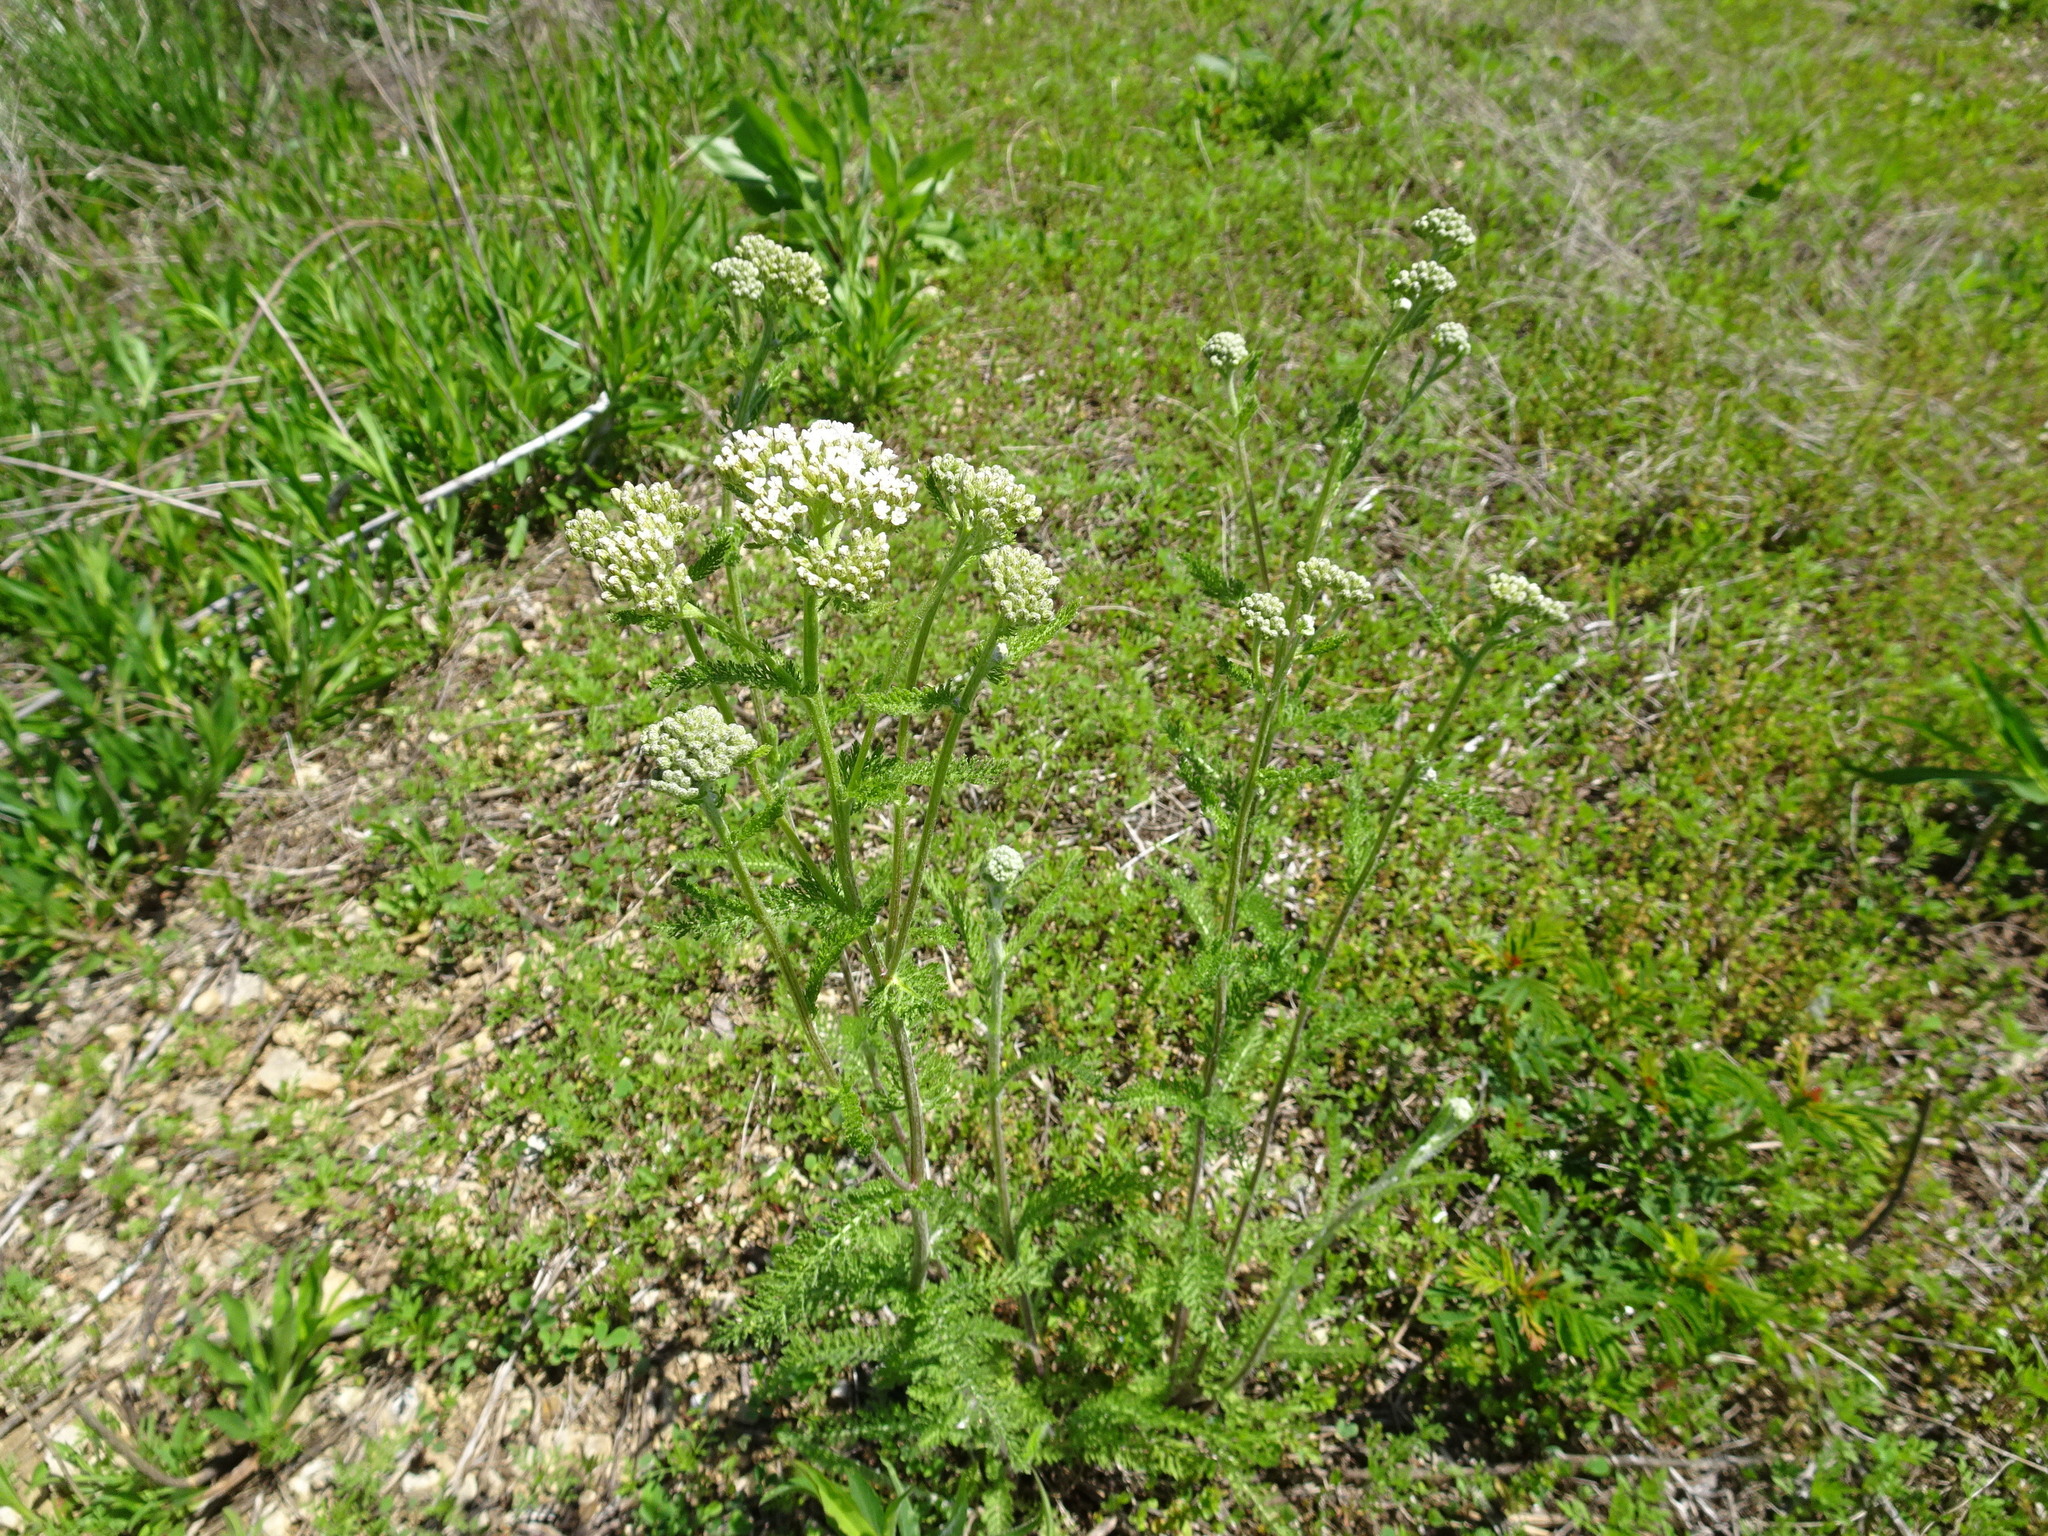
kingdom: Plantae
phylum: Tracheophyta
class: Magnoliopsida
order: Asterales
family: Asteraceae
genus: Achillea
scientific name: Achillea millefolium
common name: Yarrow
